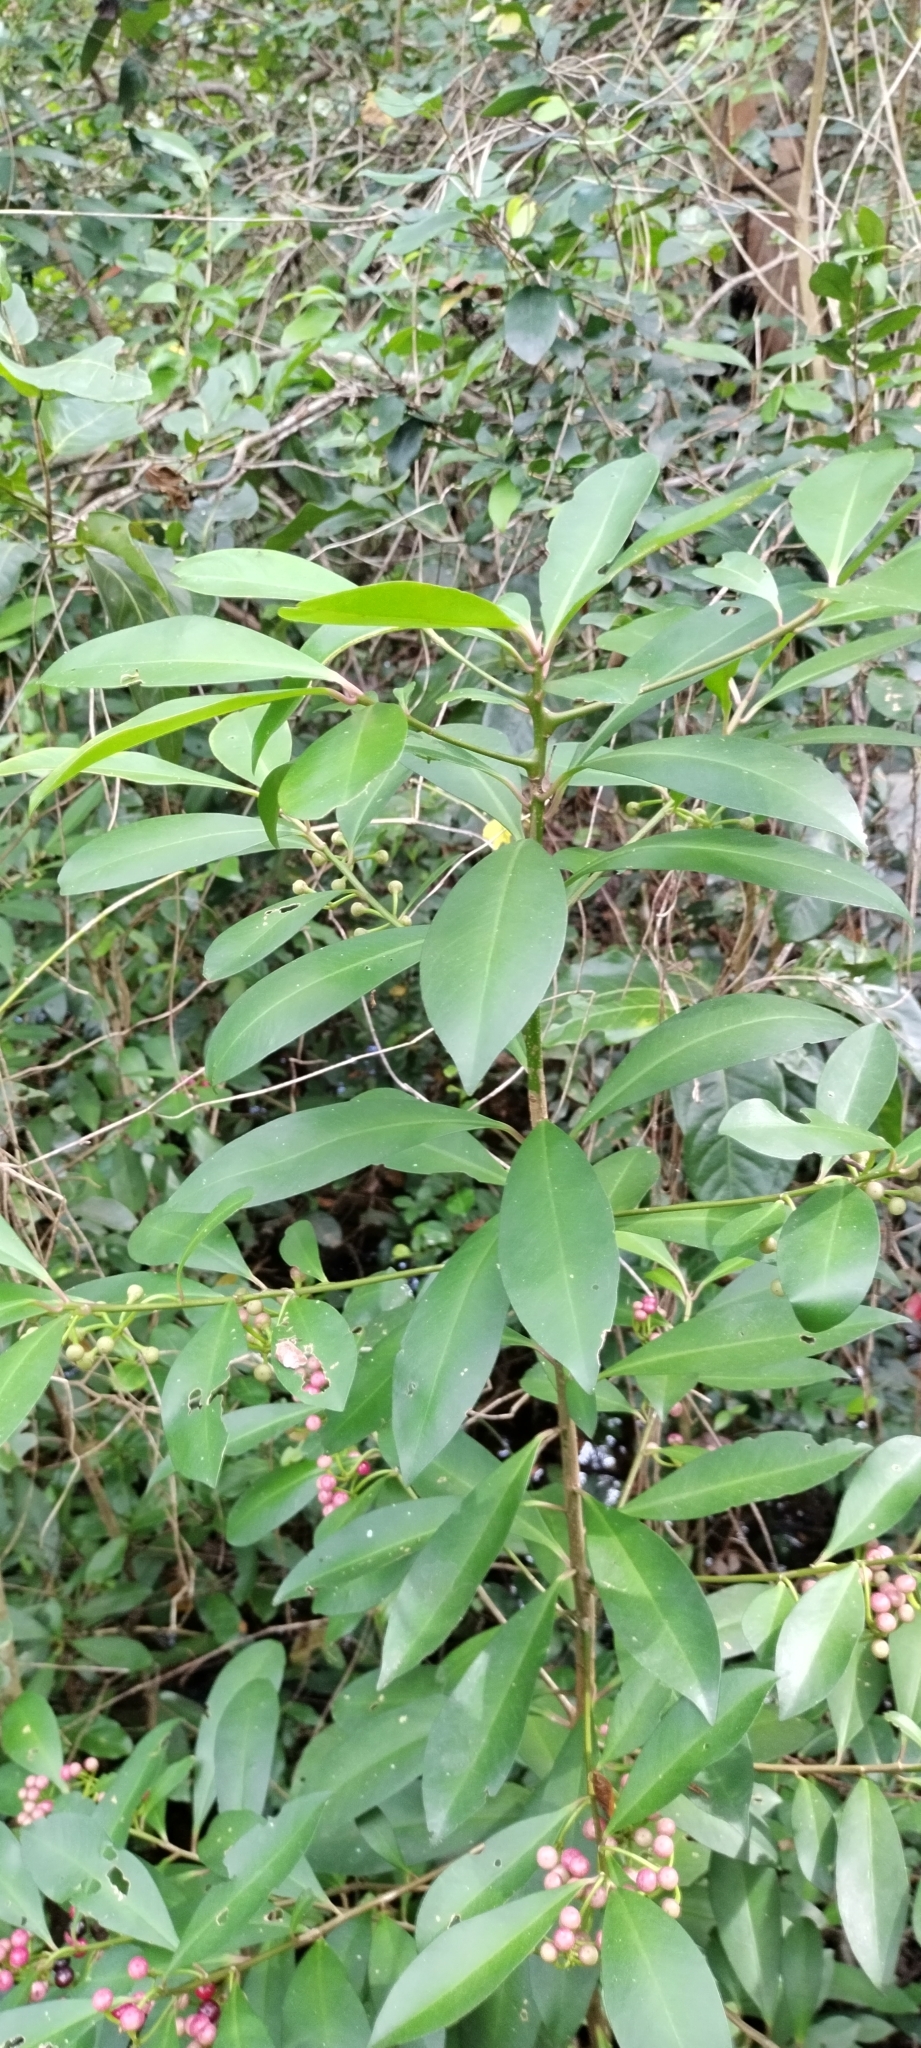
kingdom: Plantae
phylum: Tracheophyta
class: Magnoliopsida
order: Ericales
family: Primulaceae
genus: Ardisia
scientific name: Ardisia elliptica
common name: Shoebutton
